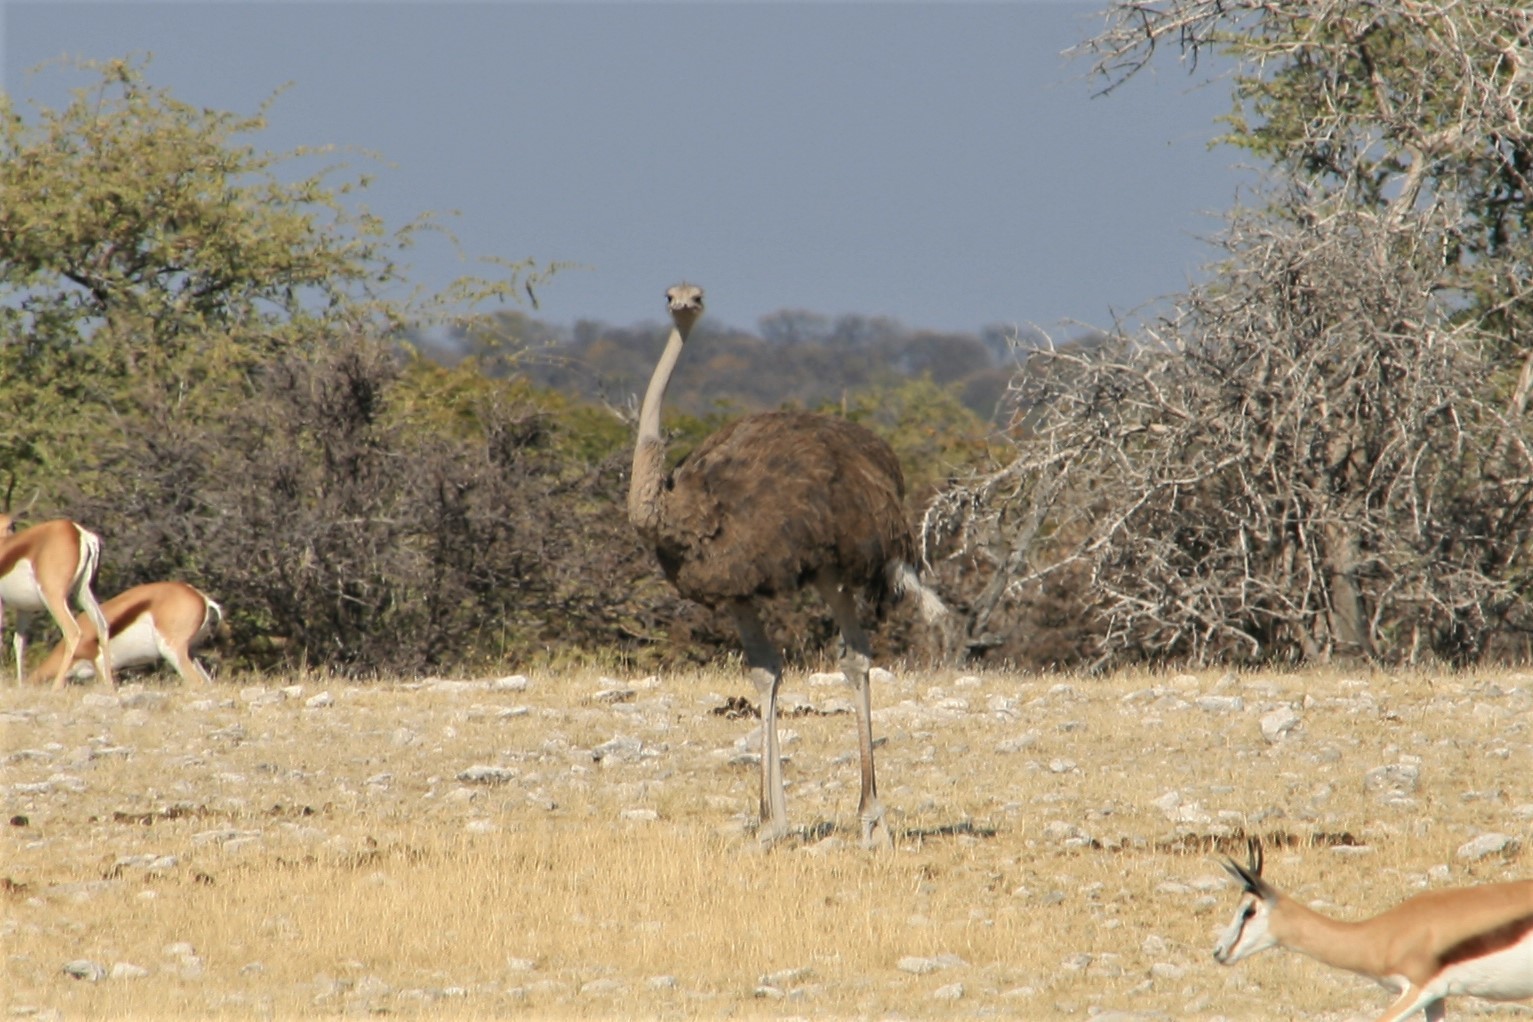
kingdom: Animalia
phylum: Chordata
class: Aves
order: Struthioniformes
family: Struthionidae
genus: Struthio
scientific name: Struthio camelus
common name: Common ostrich
